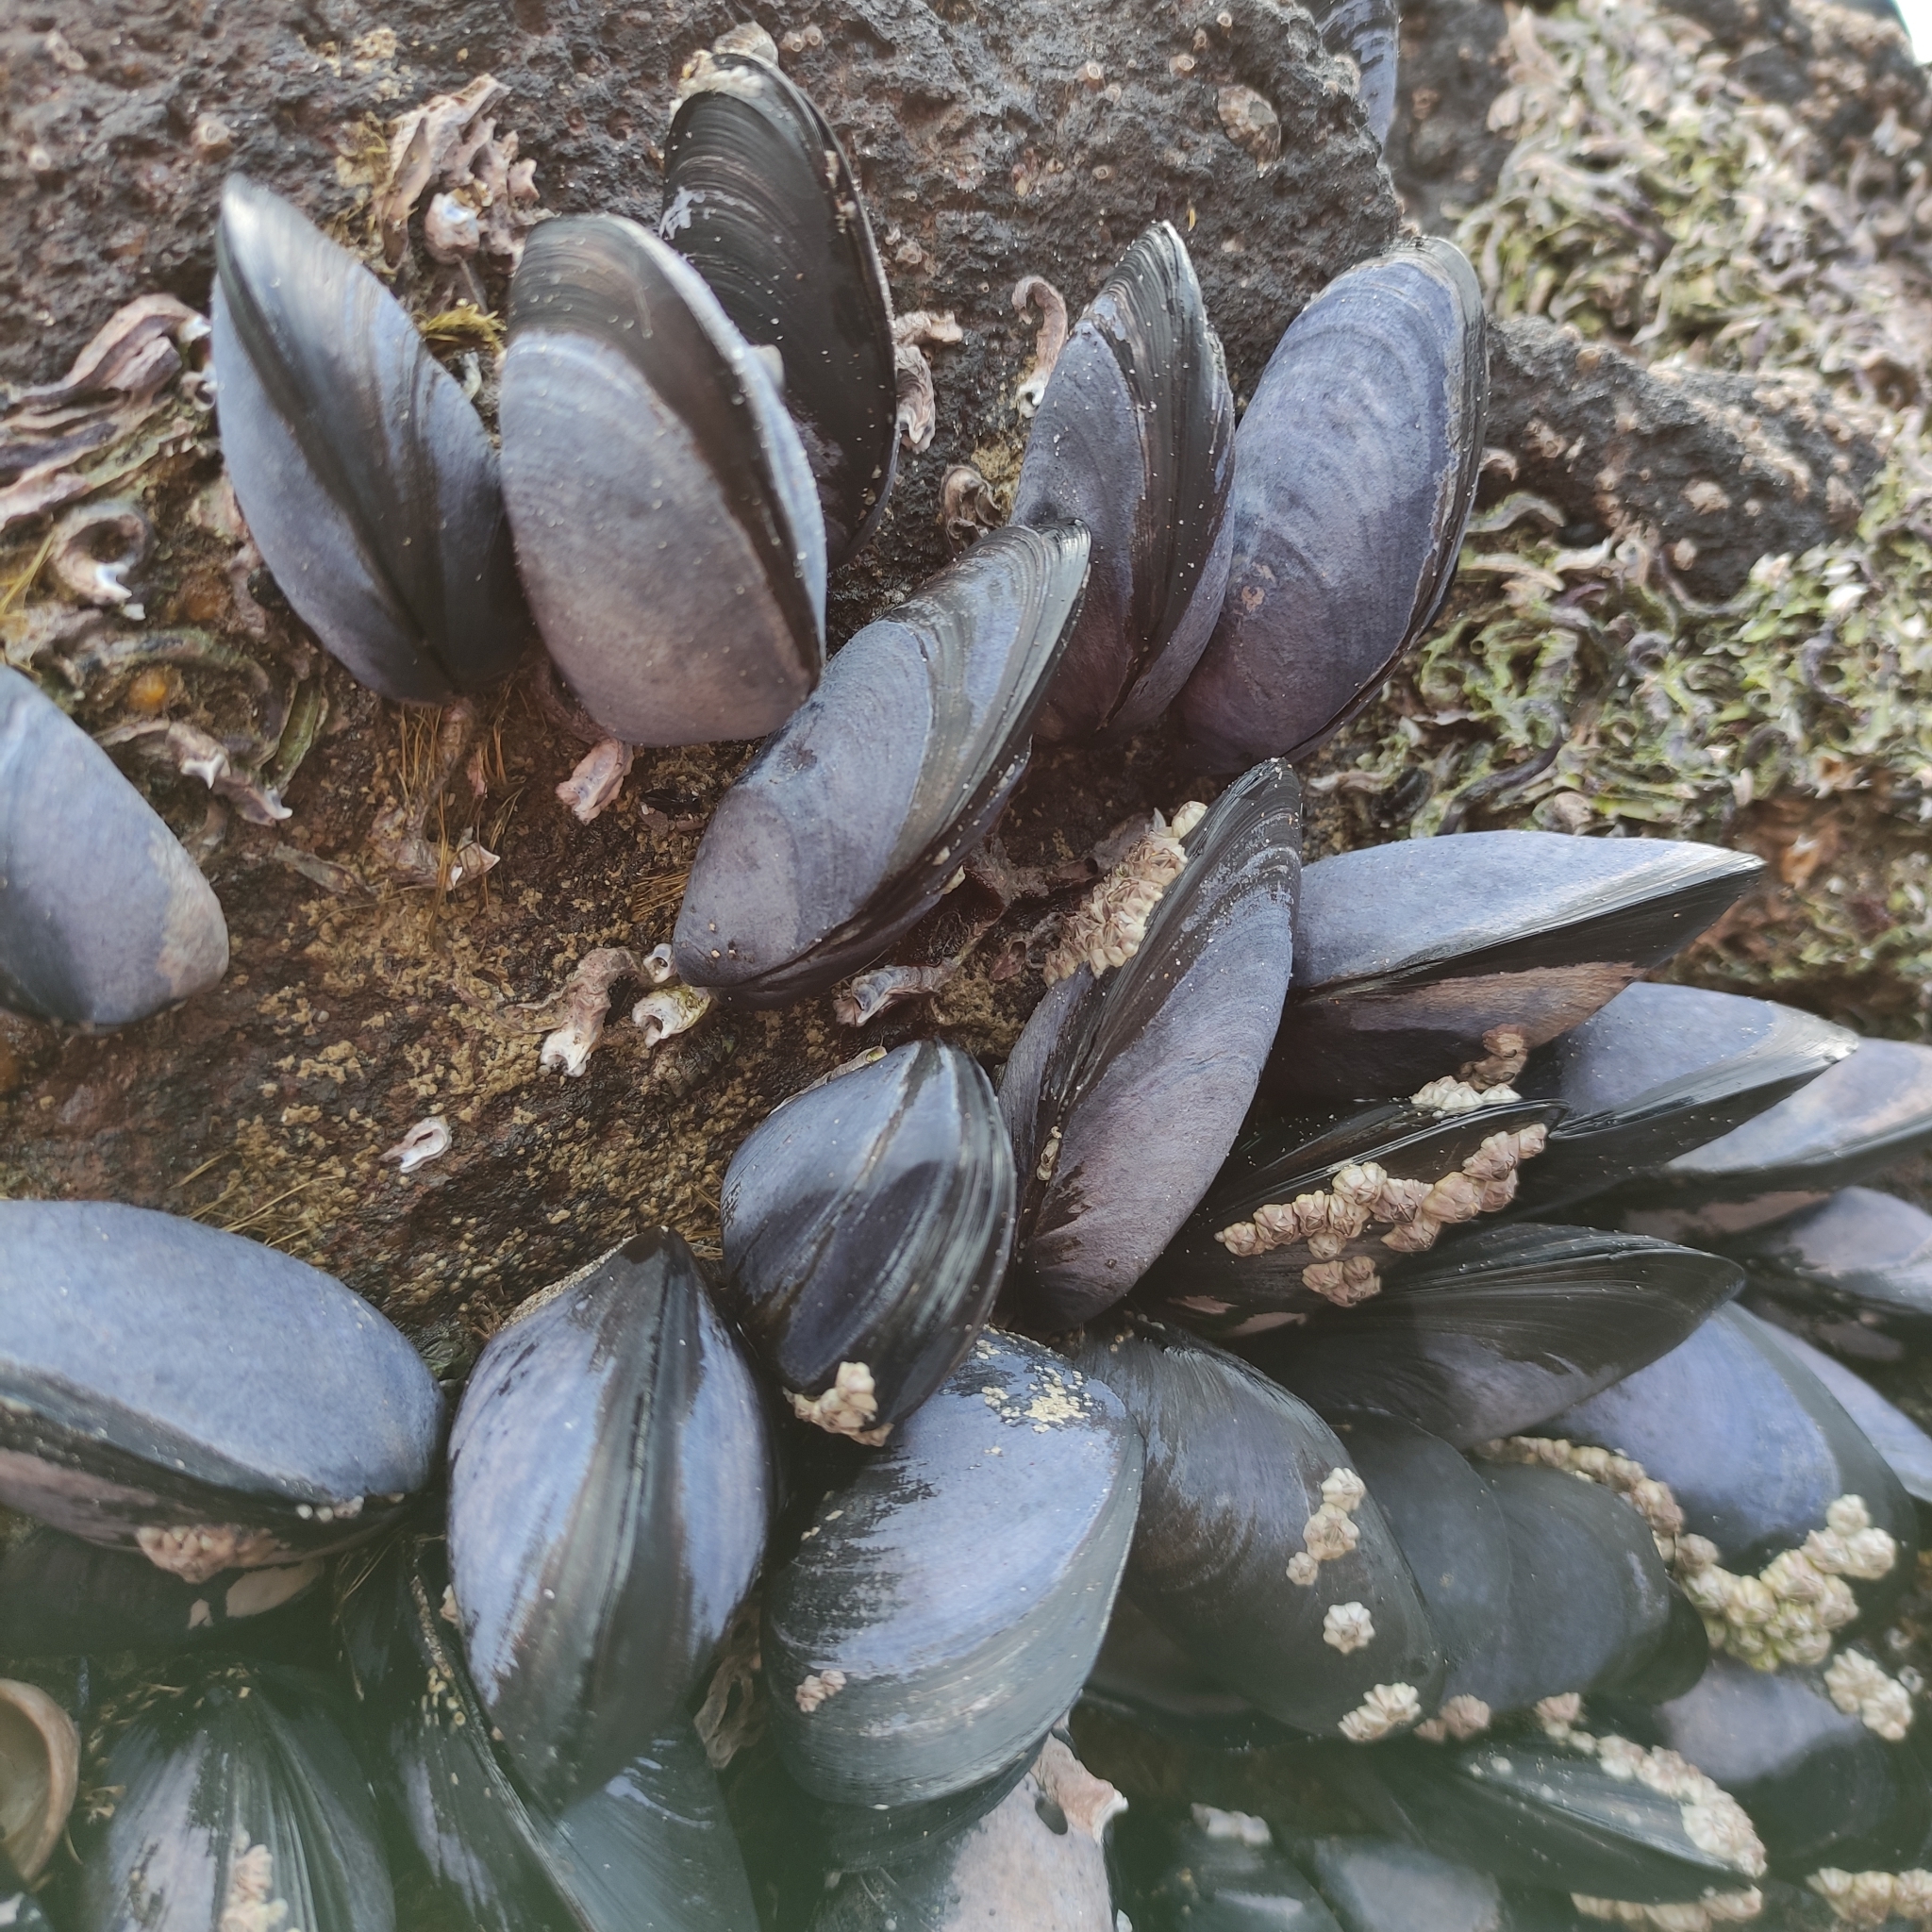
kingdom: Animalia
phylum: Mollusca
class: Bivalvia
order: Mytilida
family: Mytilidae
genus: Mytilus
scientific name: Mytilus planulatus
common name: Australian mussel
